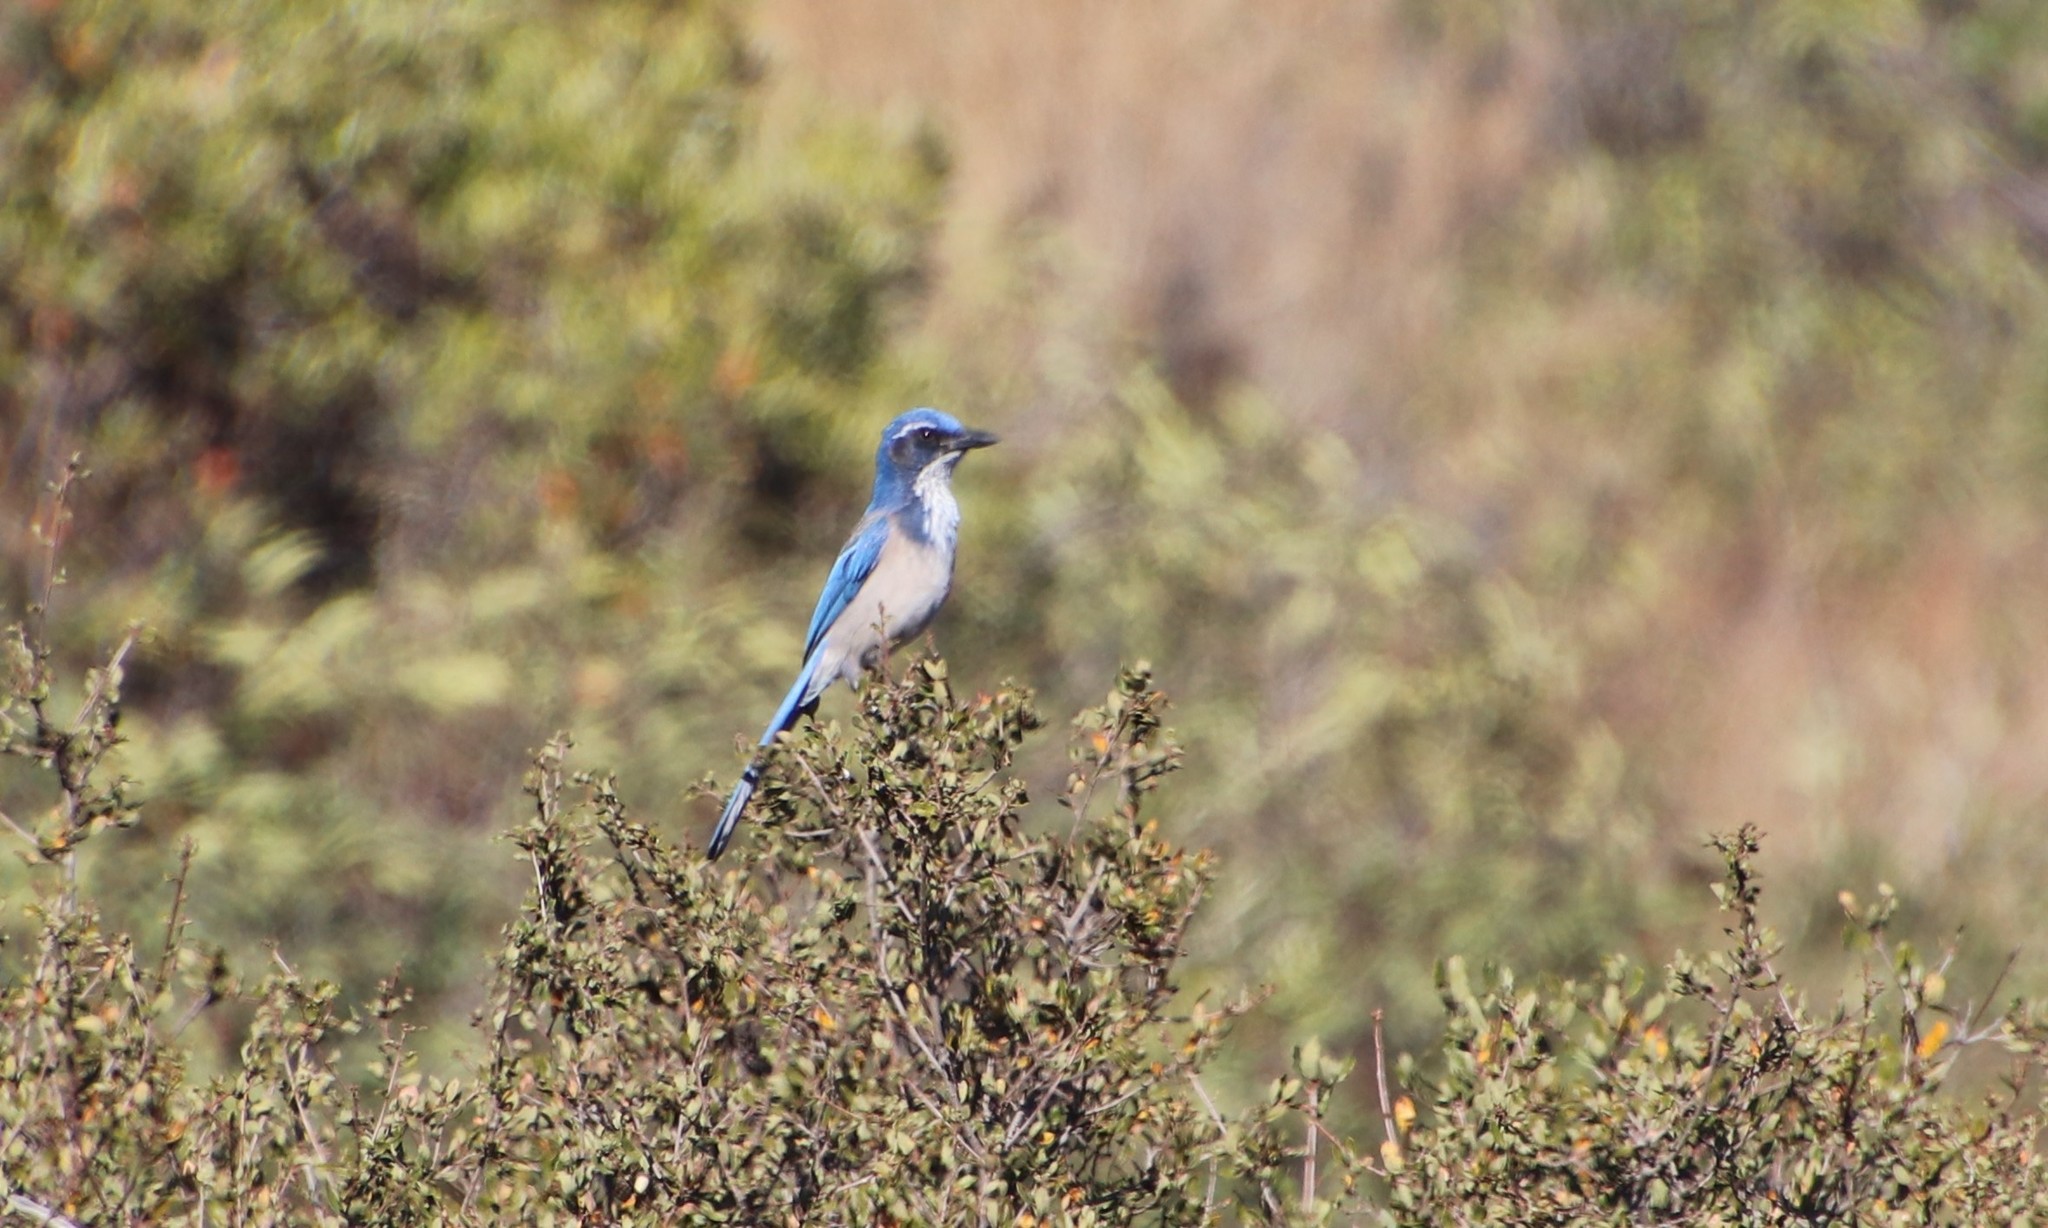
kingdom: Animalia
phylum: Chordata
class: Aves
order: Passeriformes
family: Corvidae
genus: Aphelocoma
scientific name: Aphelocoma californica
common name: California scrub-jay
